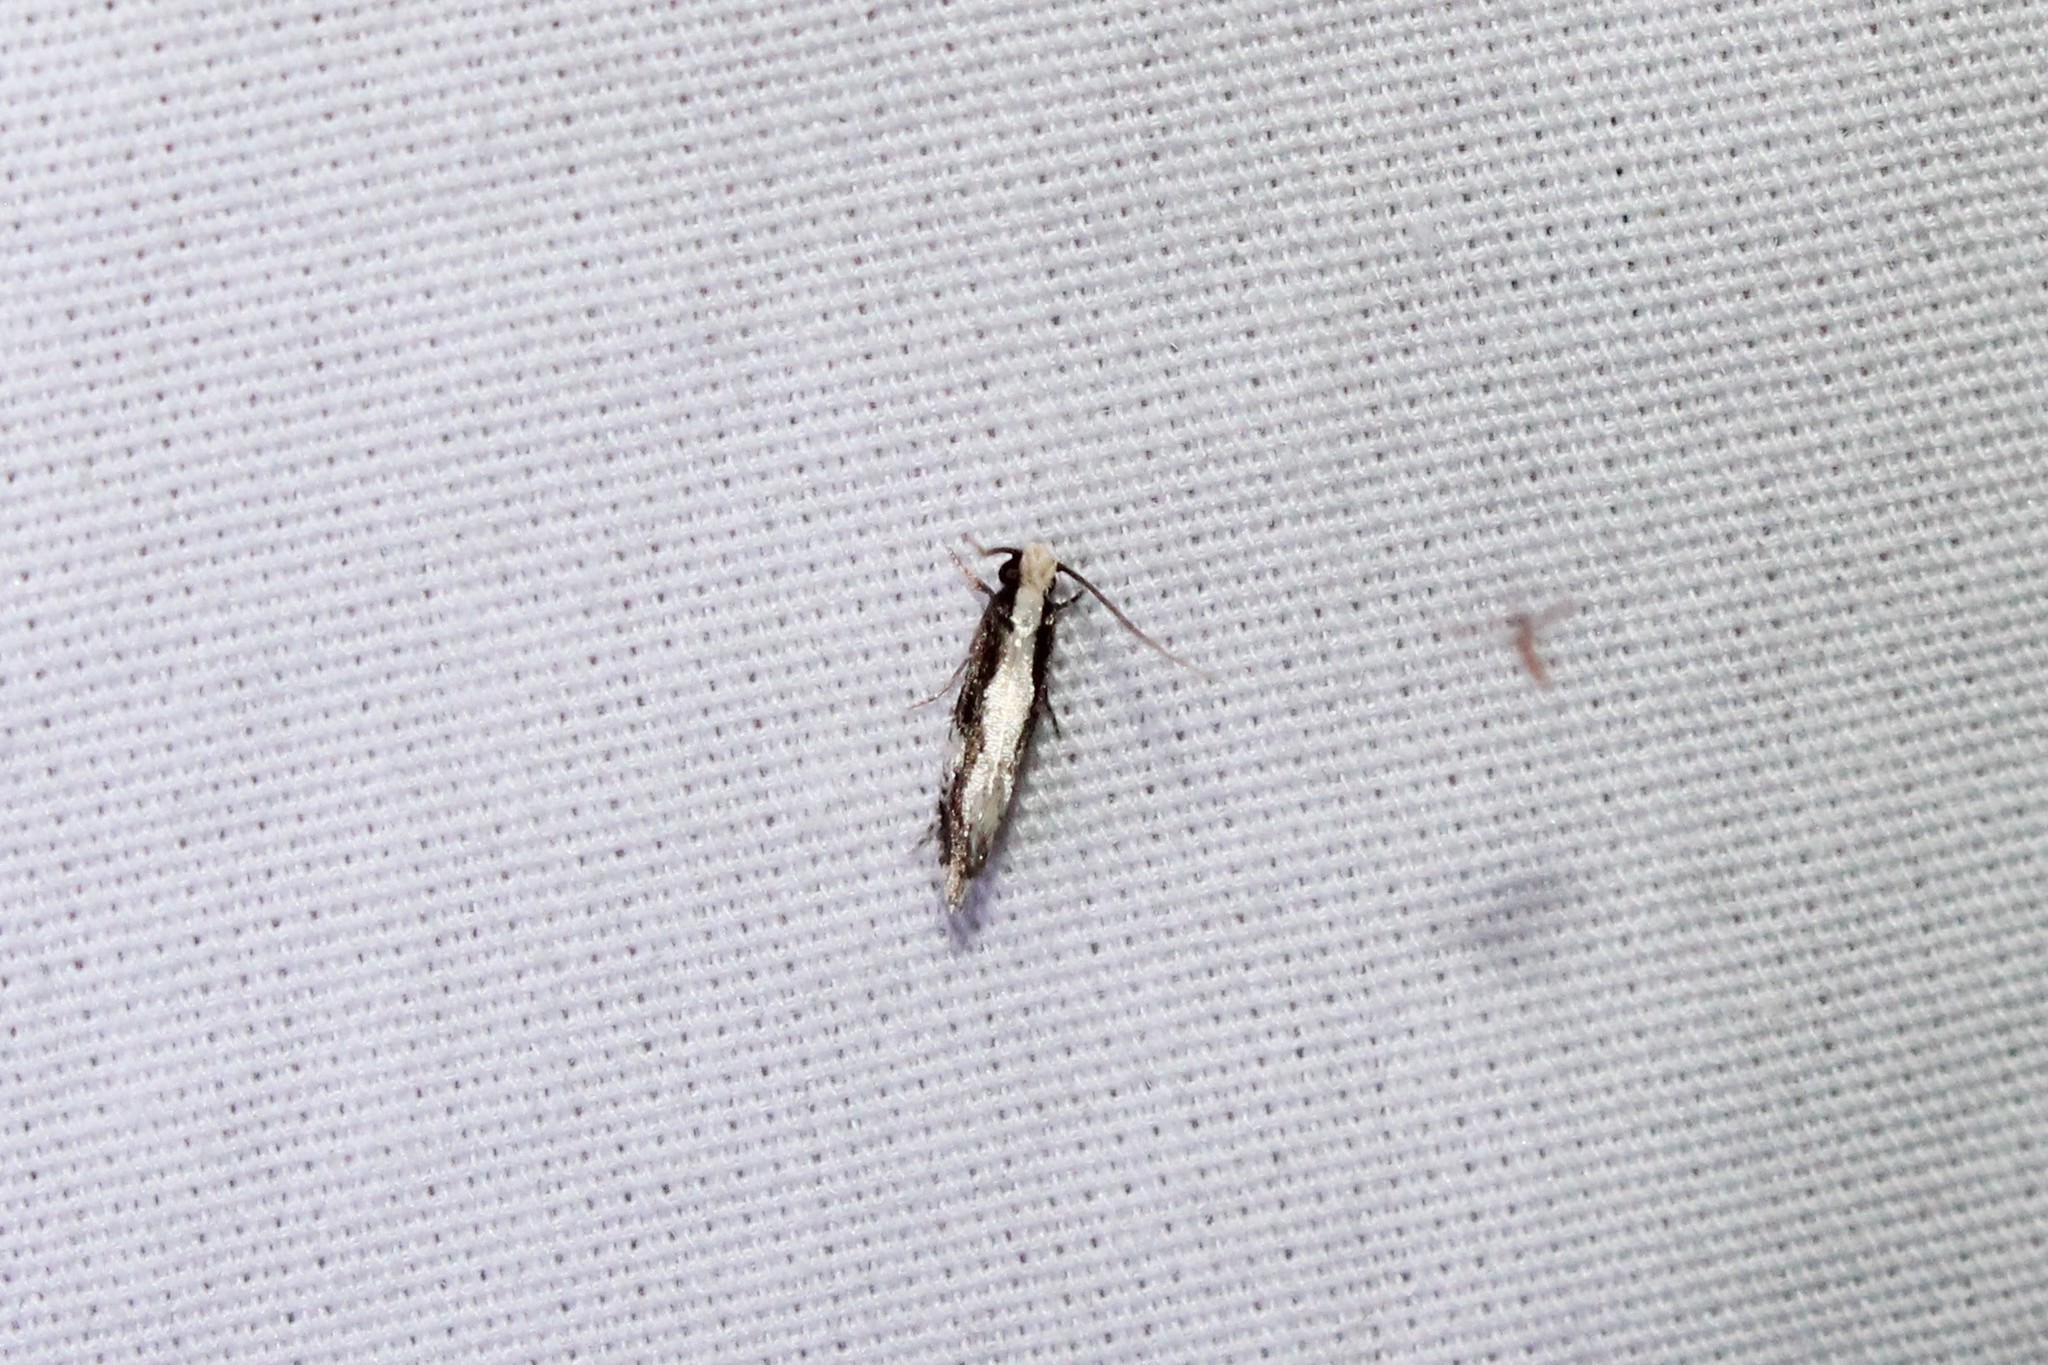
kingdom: Animalia
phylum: Arthropoda
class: Insecta
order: Lepidoptera
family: Tineidae
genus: Monopis
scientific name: Monopis dorsistrigella
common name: Skunkback monopis moth
